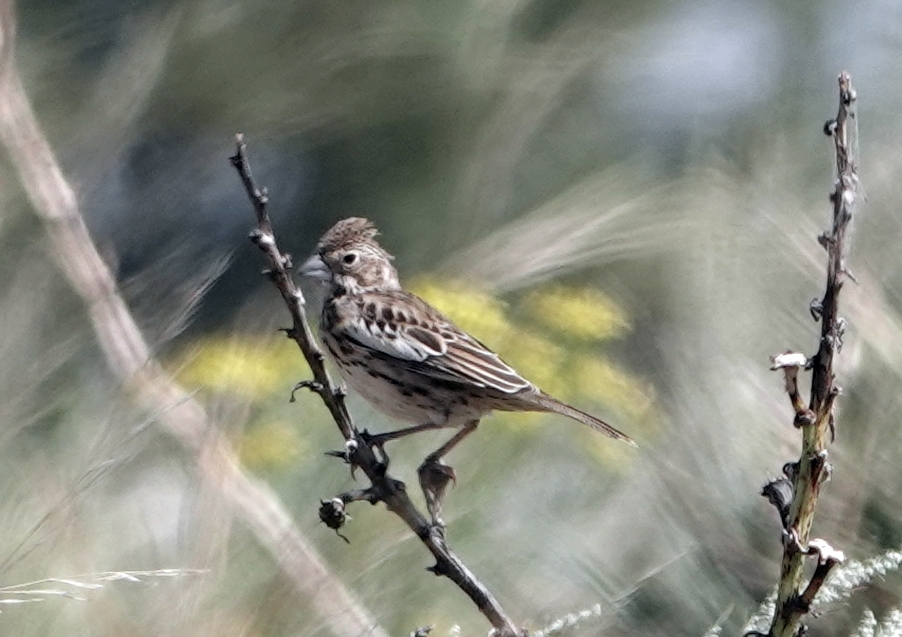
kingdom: Animalia
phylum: Chordata
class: Aves
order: Passeriformes
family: Passerellidae
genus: Calamospiza
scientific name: Calamospiza melanocorys
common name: Lark bunting
